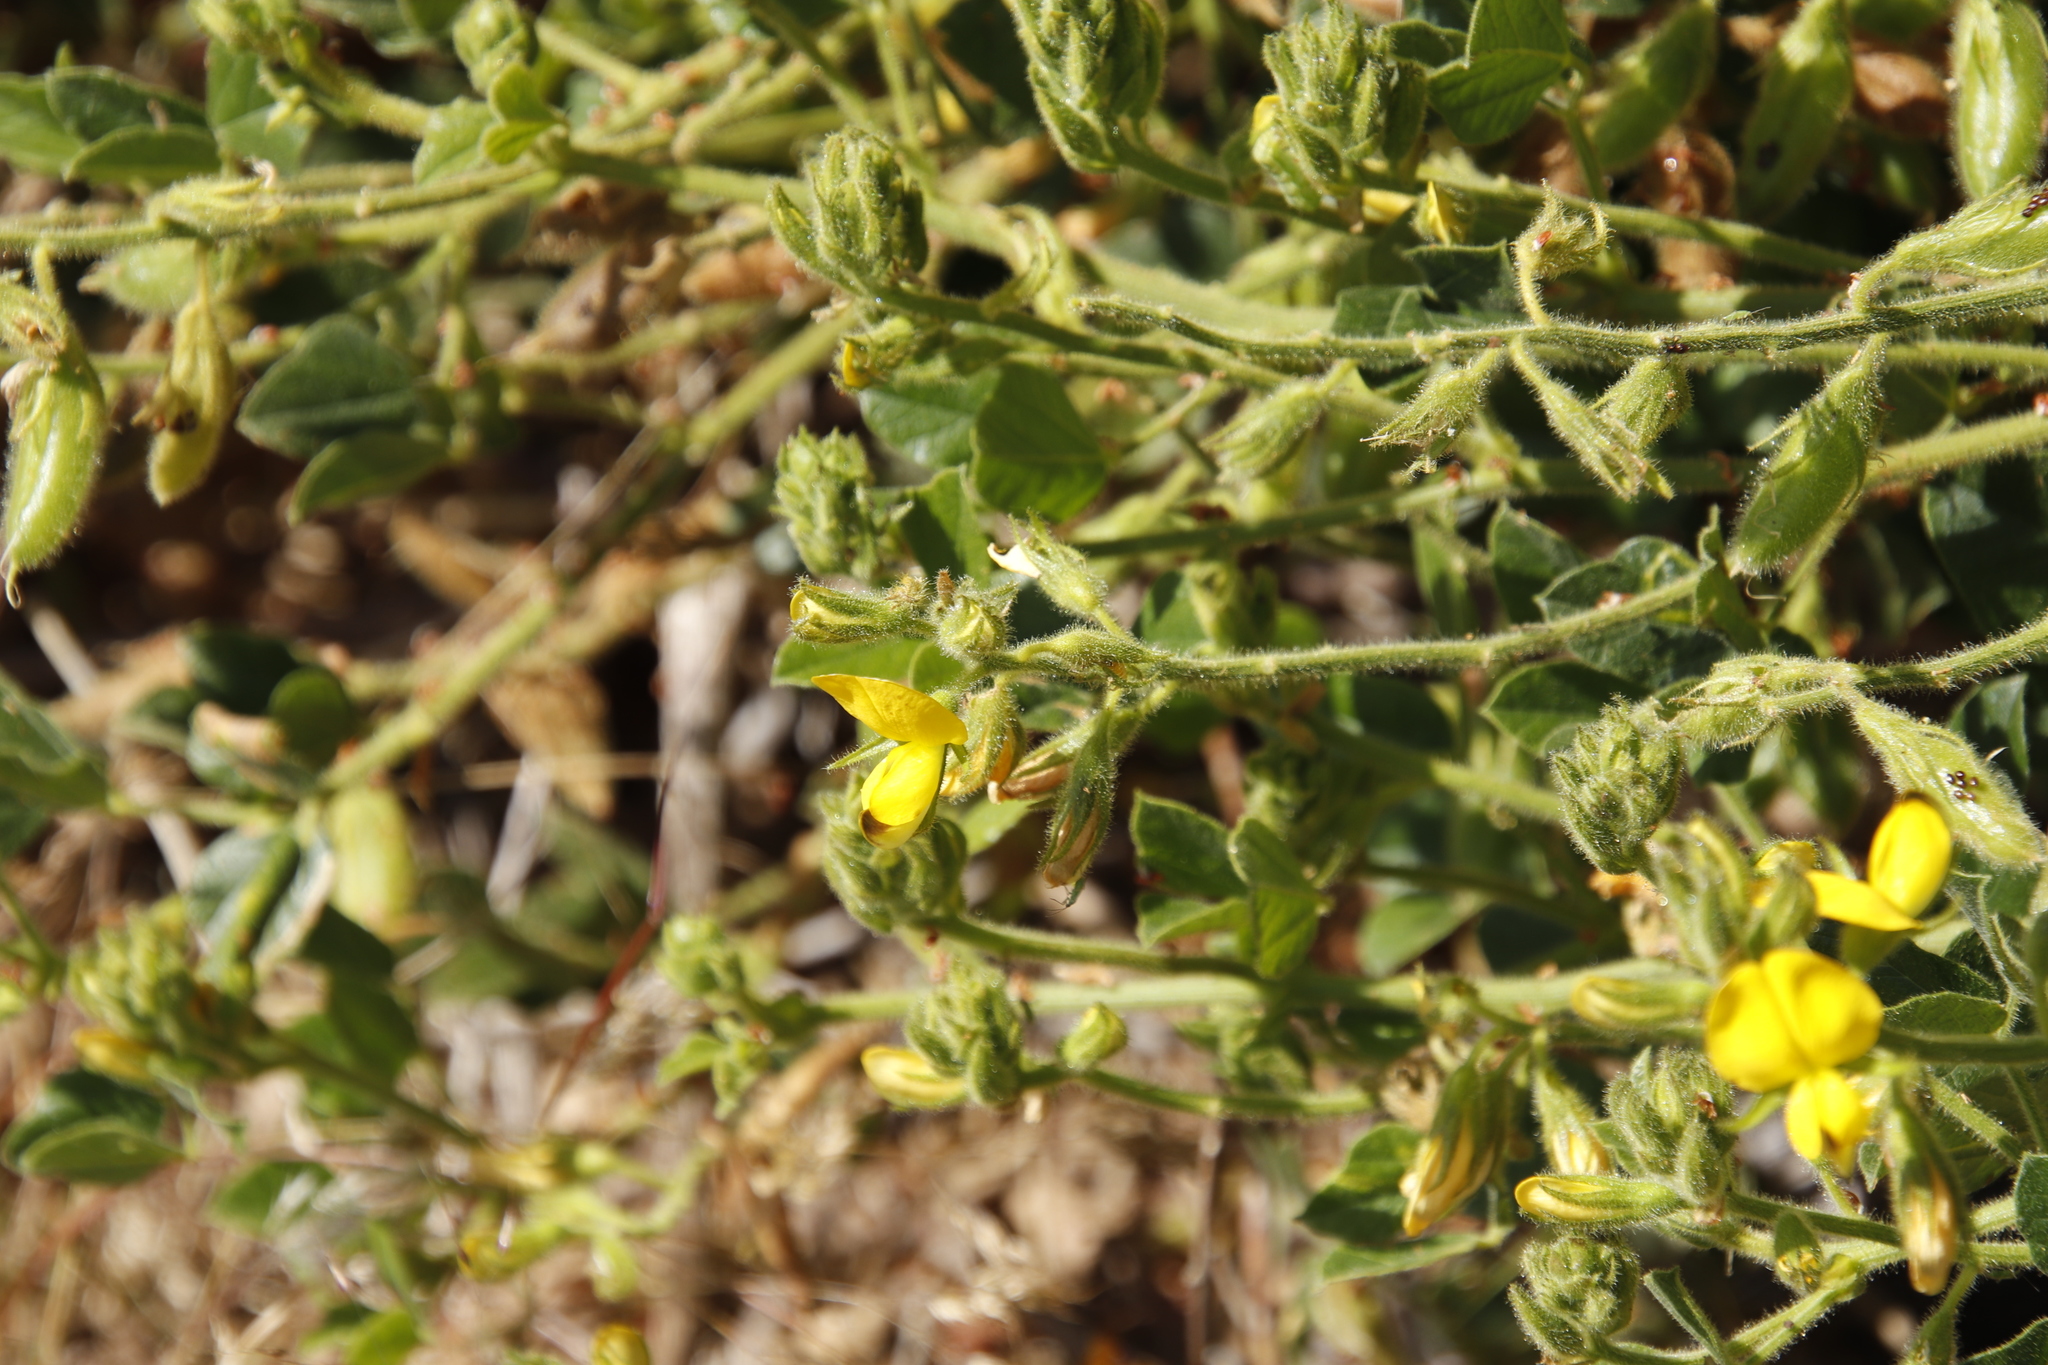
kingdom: Plantae
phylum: Tracheophyta
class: Magnoliopsida
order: Fabales
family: Fabaceae
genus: Bolusafra
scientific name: Bolusafra bituminosa
